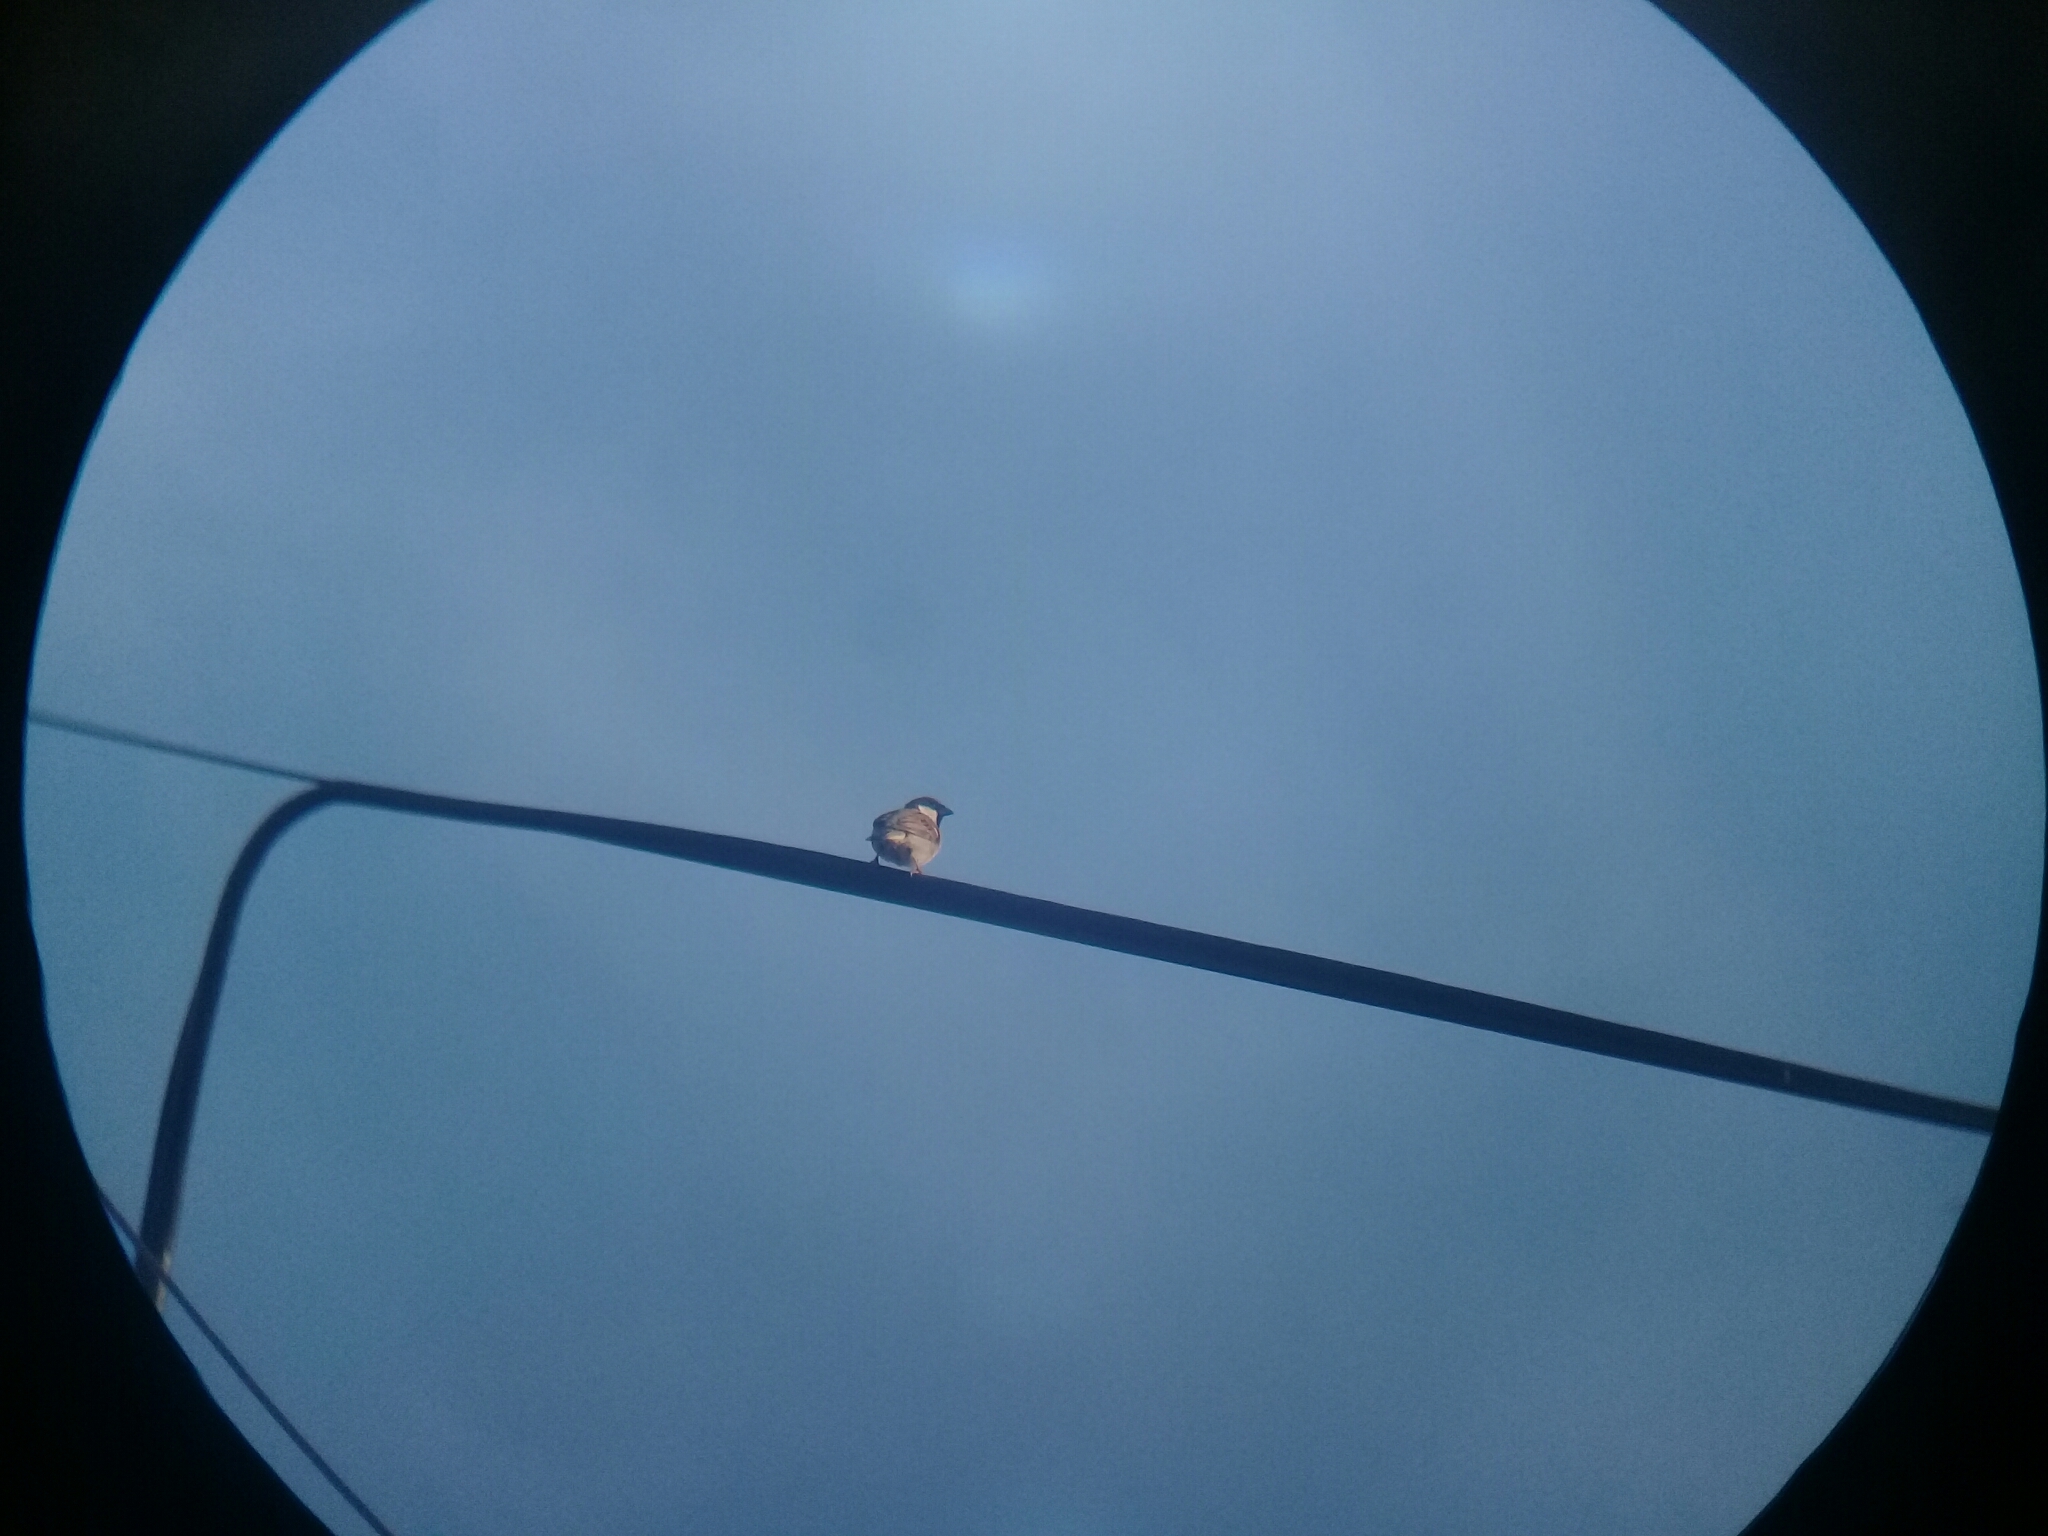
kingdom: Animalia
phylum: Chordata
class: Aves
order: Passeriformes
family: Passeridae
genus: Passer
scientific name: Passer domesticus
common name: House sparrow
